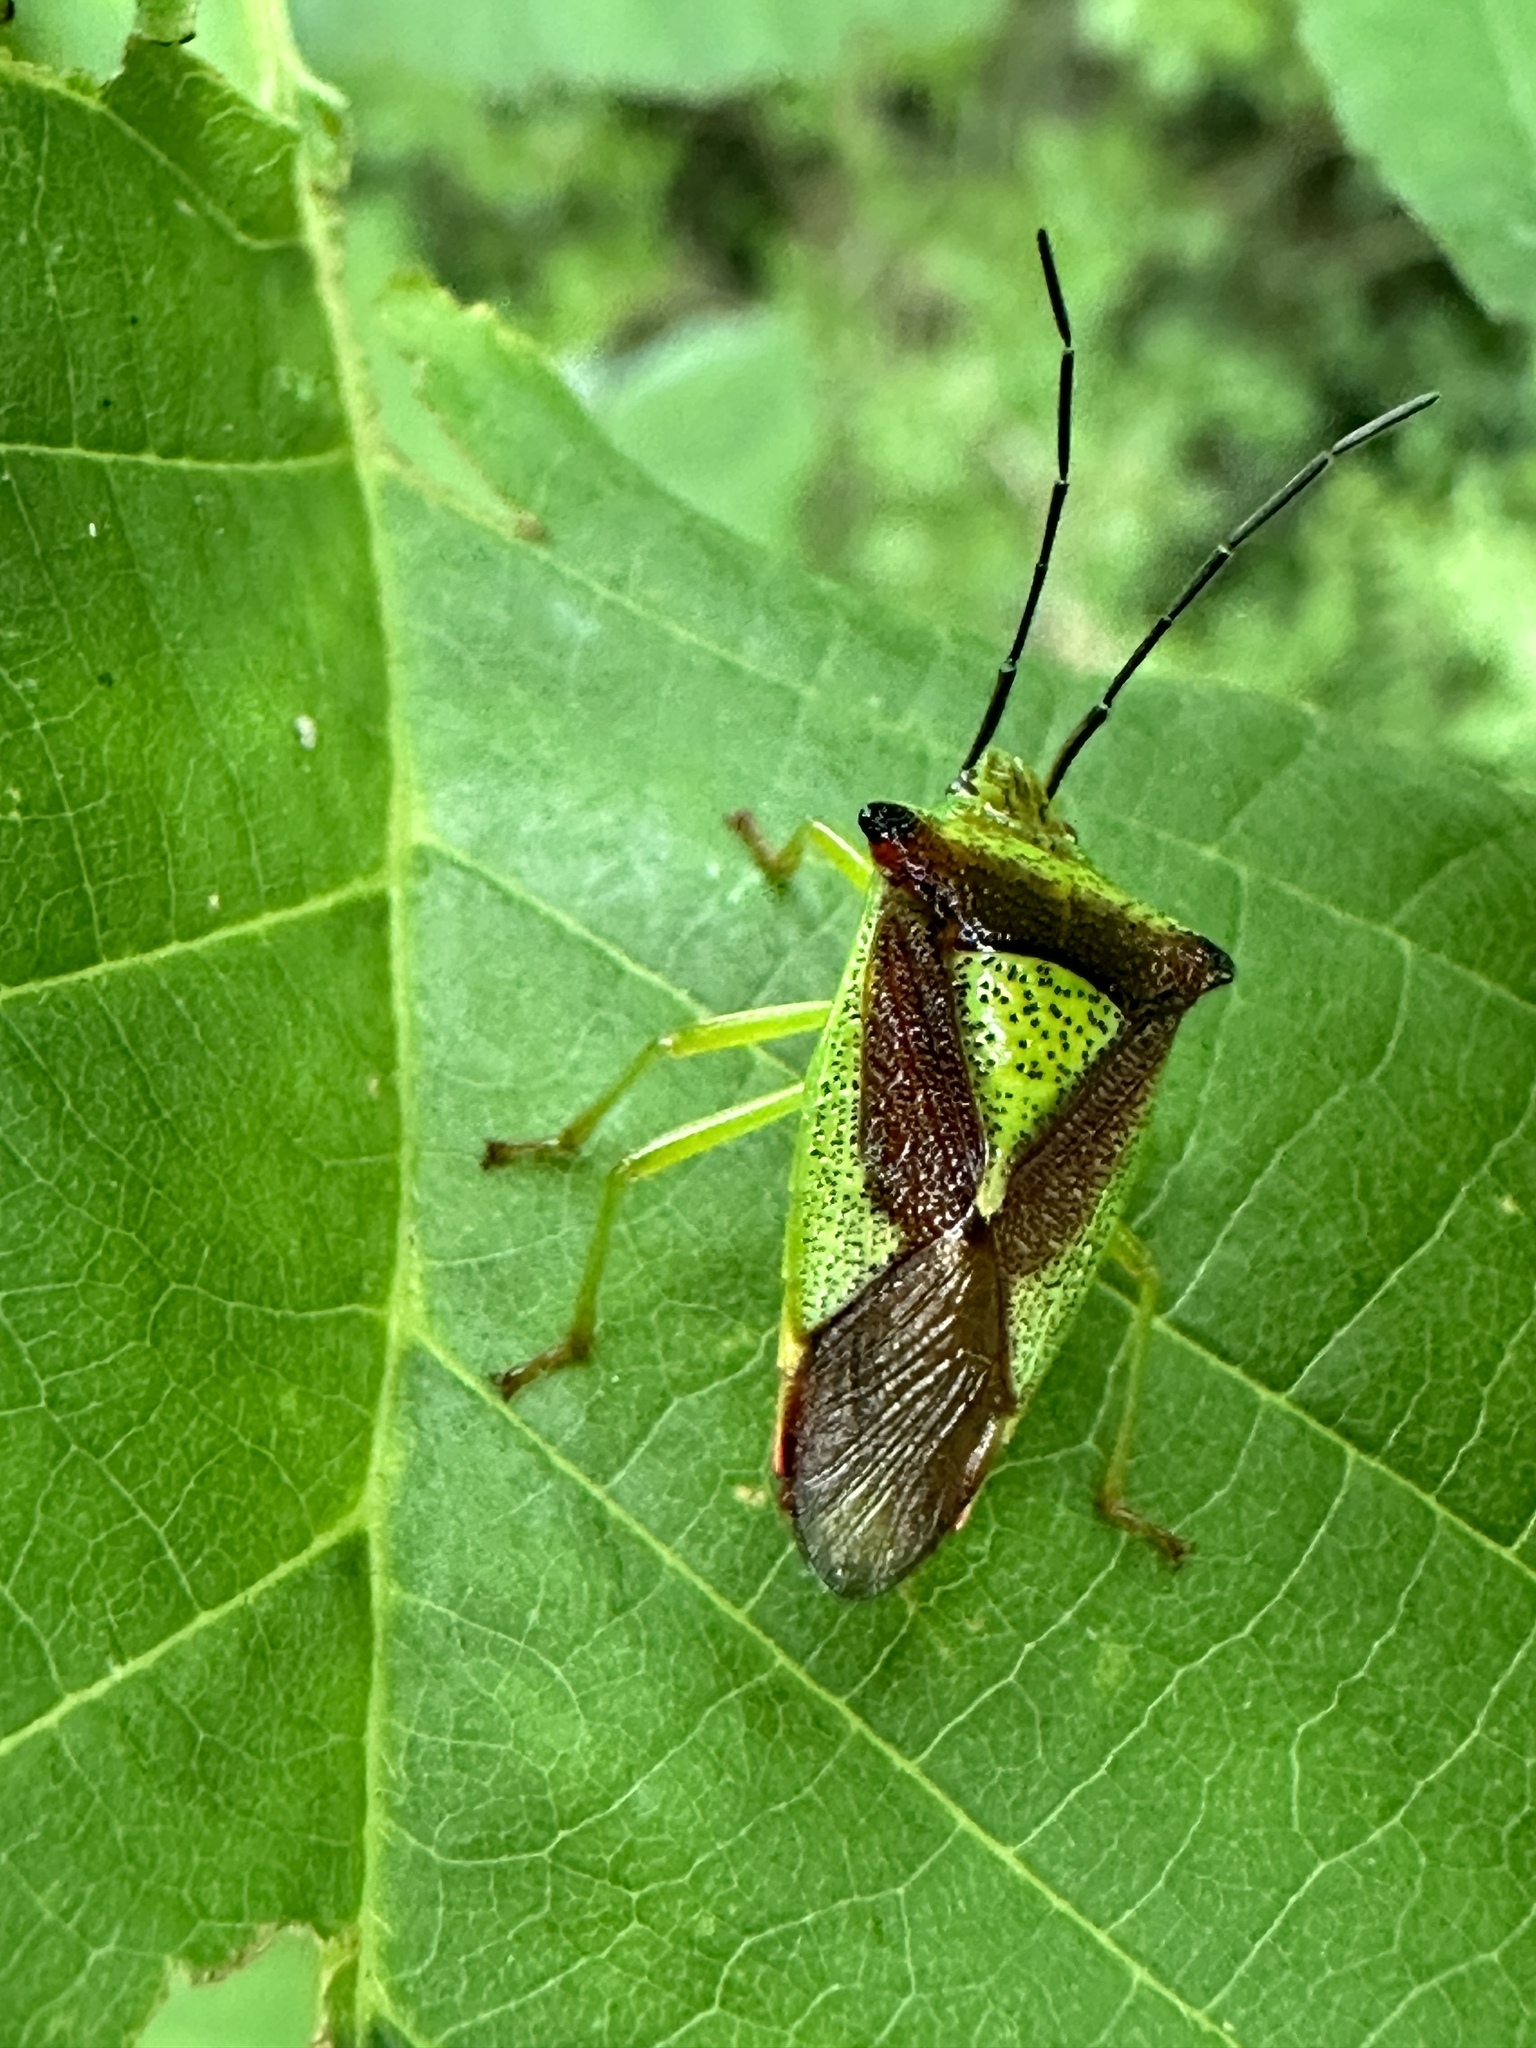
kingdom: Animalia
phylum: Arthropoda
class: Insecta
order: Hemiptera
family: Acanthosomatidae
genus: Acanthosoma
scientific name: Acanthosoma haemorrhoidale
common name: Hawthorn shieldbug
